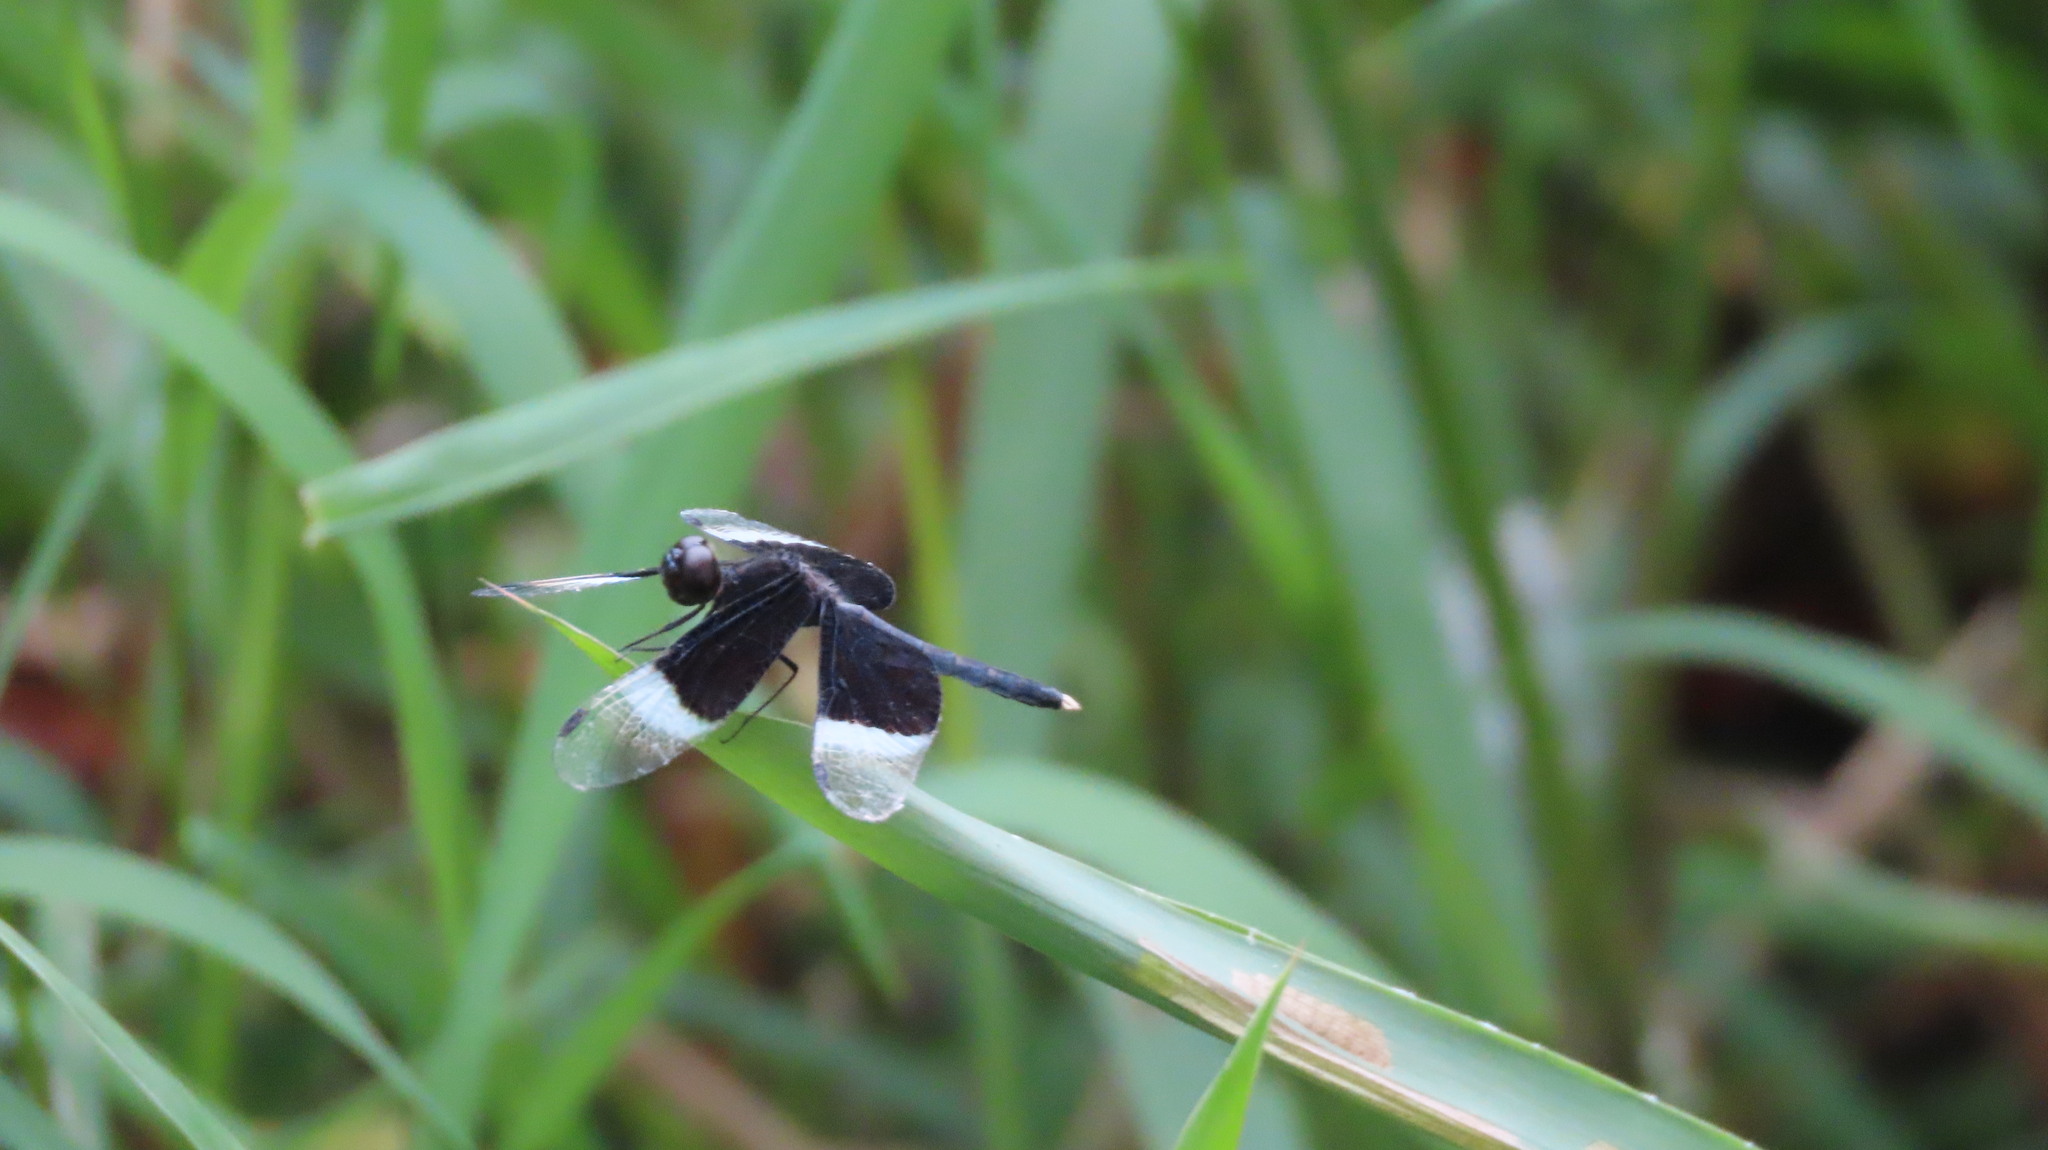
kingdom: Animalia
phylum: Arthropoda
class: Insecta
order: Odonata
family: Libellulidae
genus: Neurothemis
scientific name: Neurothemis tullia
